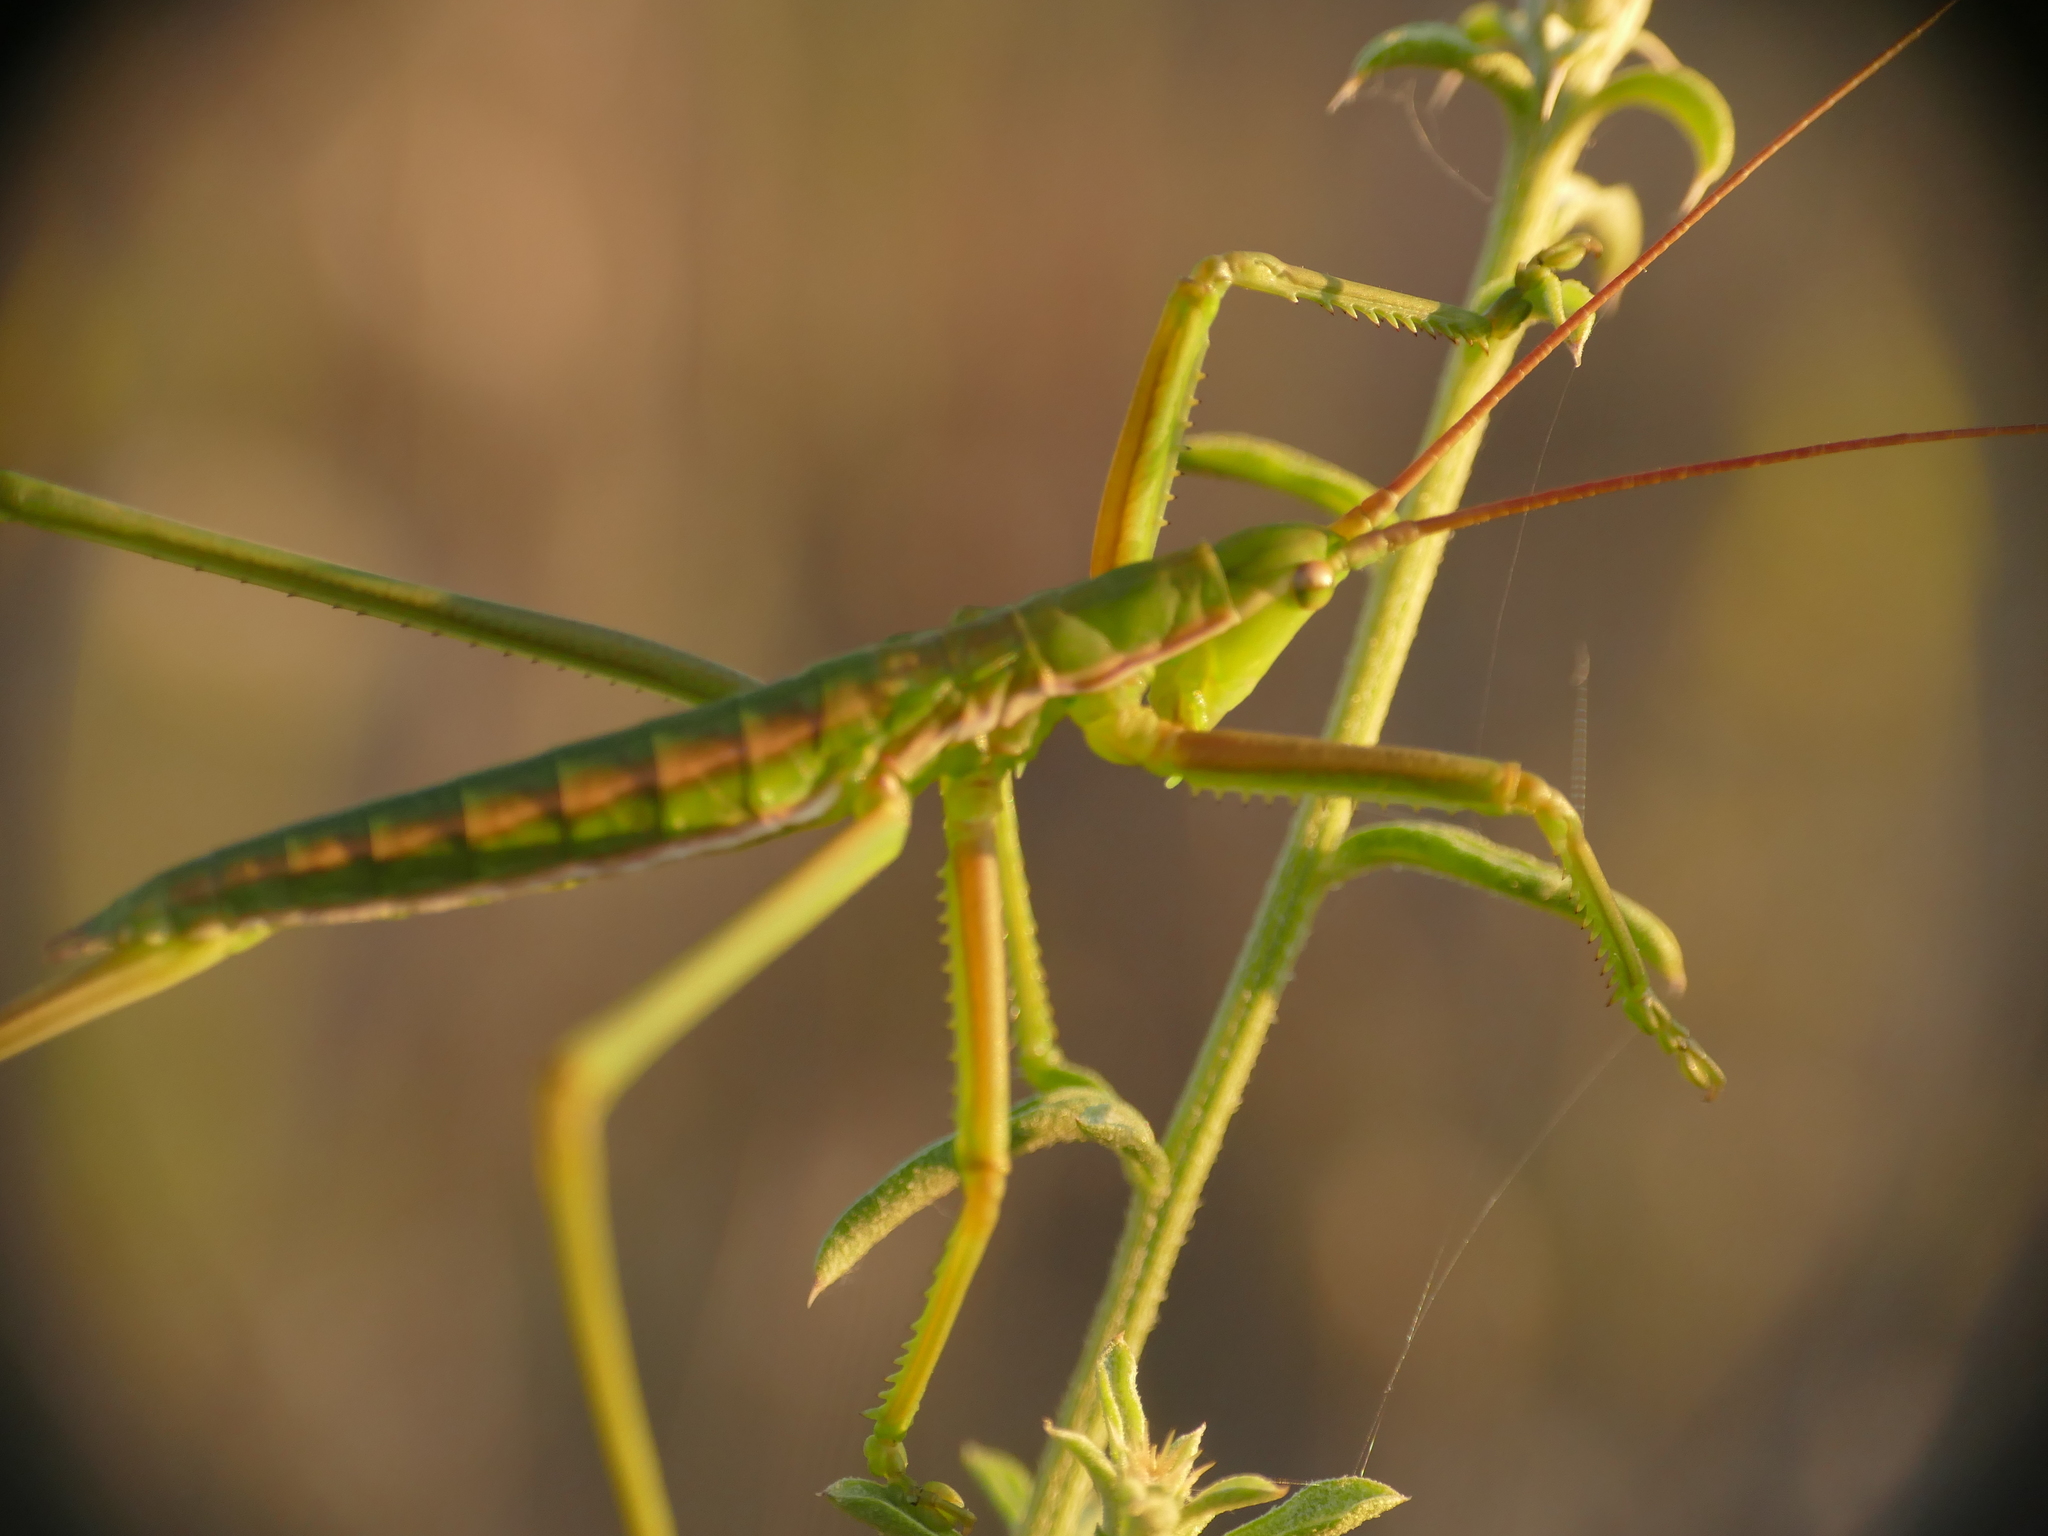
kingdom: Animalia
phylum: Arthropoda
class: Insecta
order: Orthoptera
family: Tettigoniidae
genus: Saga
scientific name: Saga pedo
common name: Common predatory bush-cricket
